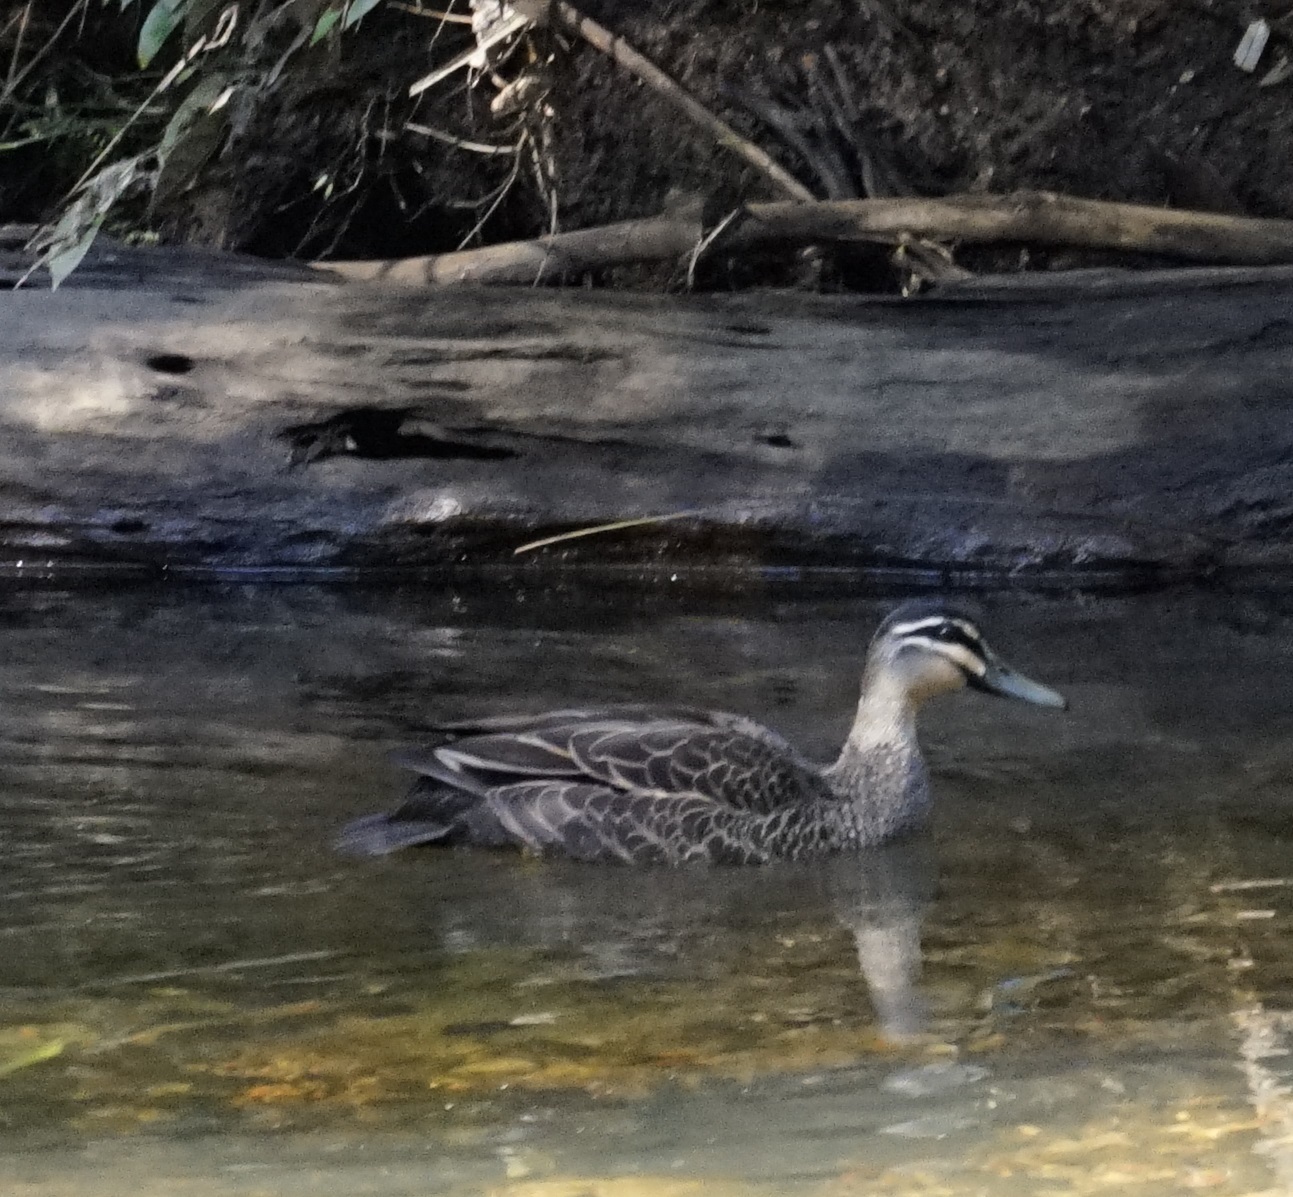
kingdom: Animalia
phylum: Chordata
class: Aves
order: Anseriformes
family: Anatidae
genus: Anas
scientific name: Anas superciliosa
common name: Pacific black duck
